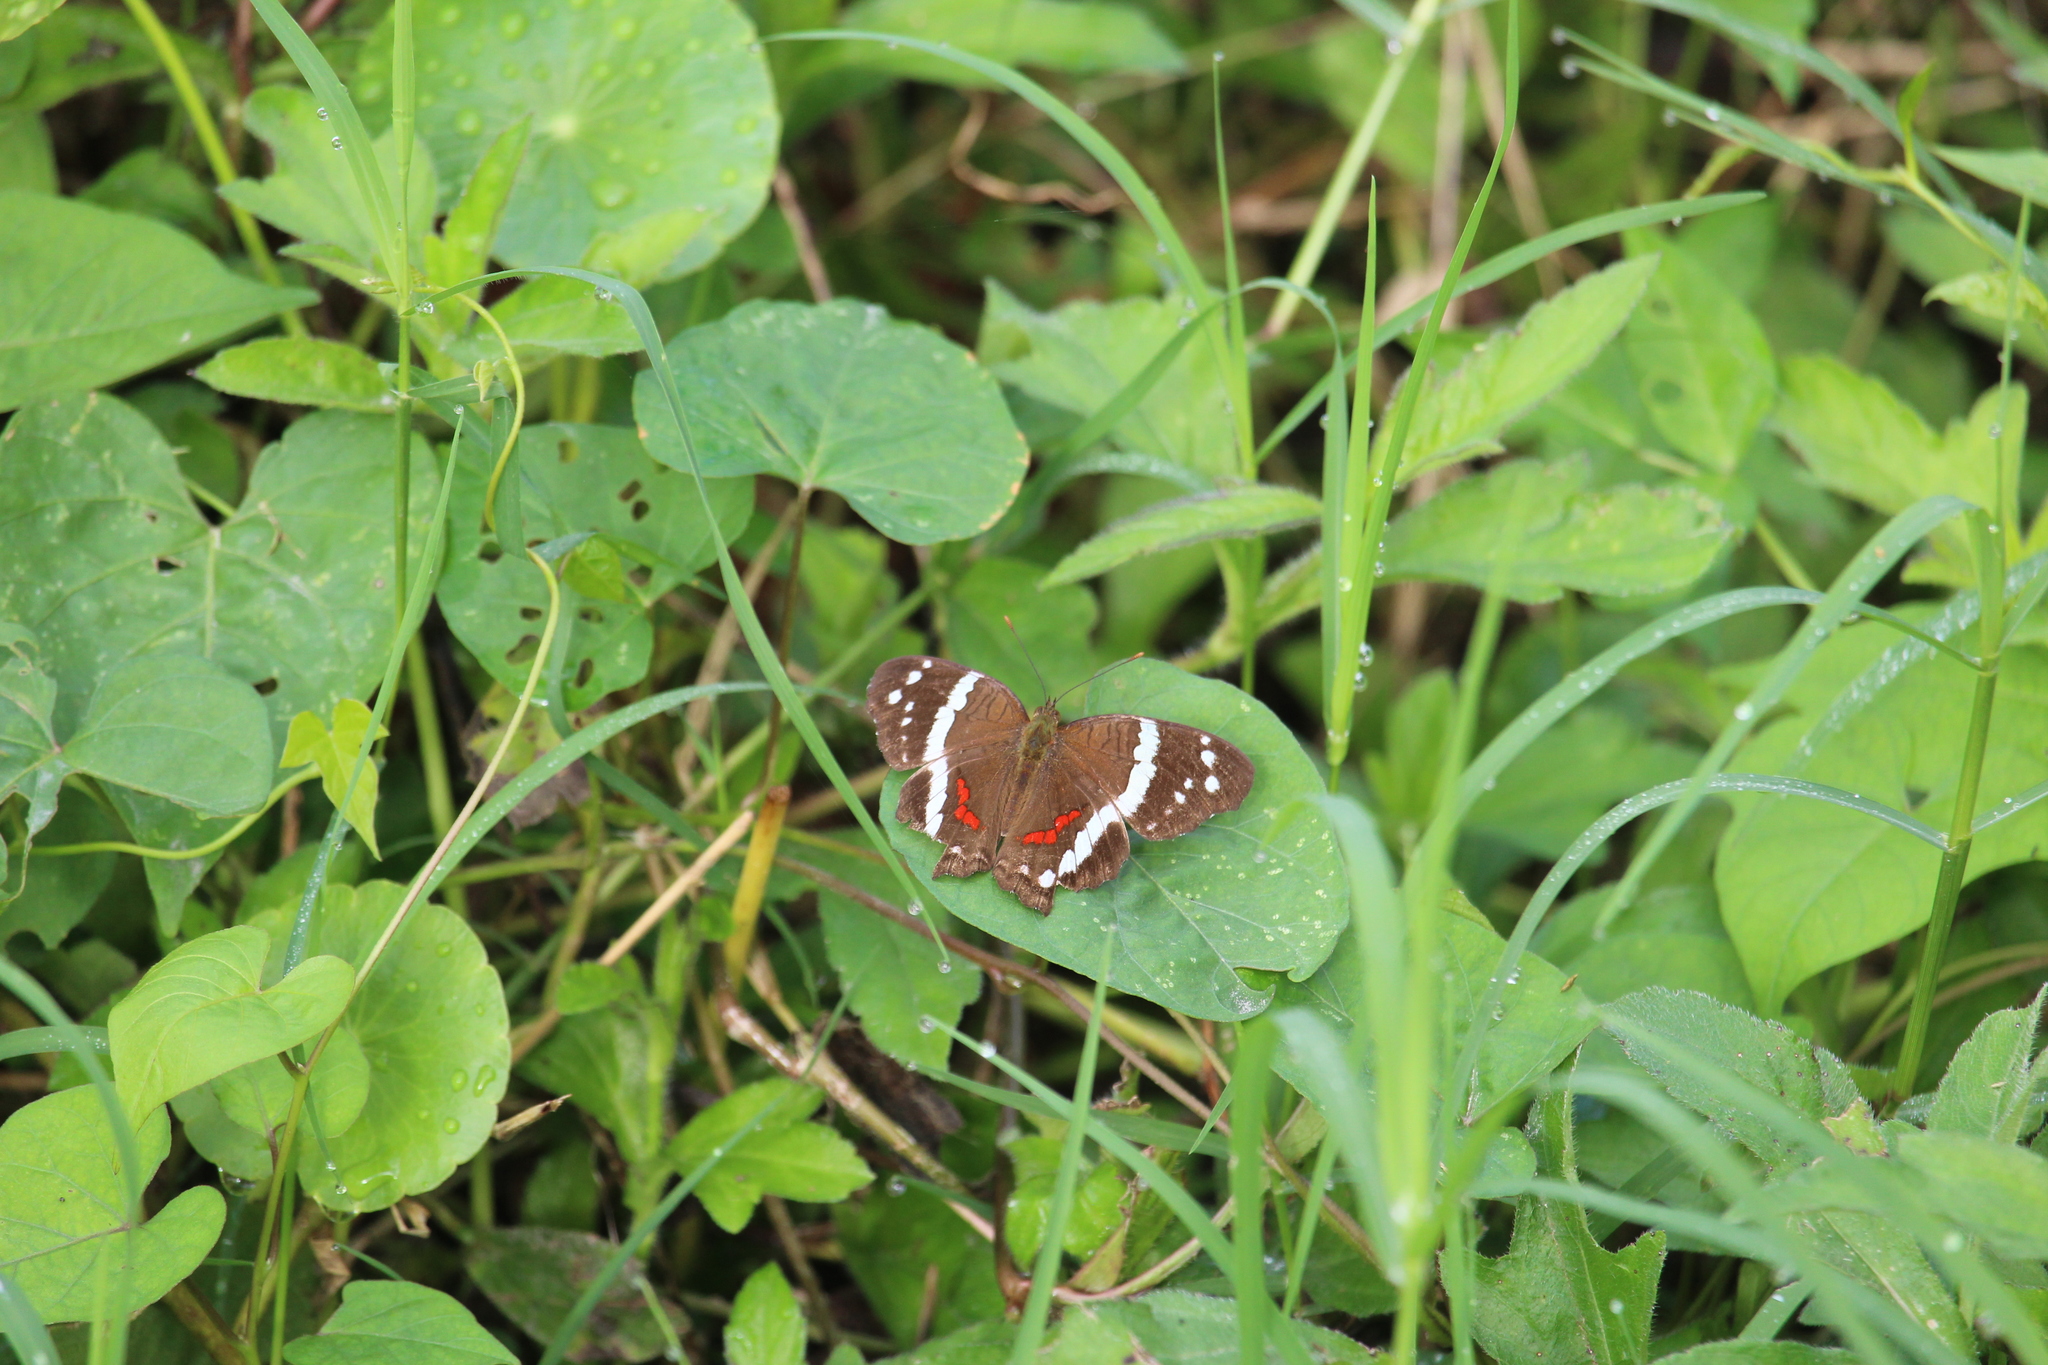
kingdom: Animalia
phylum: Arthropoda
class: Insecta
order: Lepidoptera
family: Nymphalidae
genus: Anartia
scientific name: Anartia fatima
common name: Banded peacock
